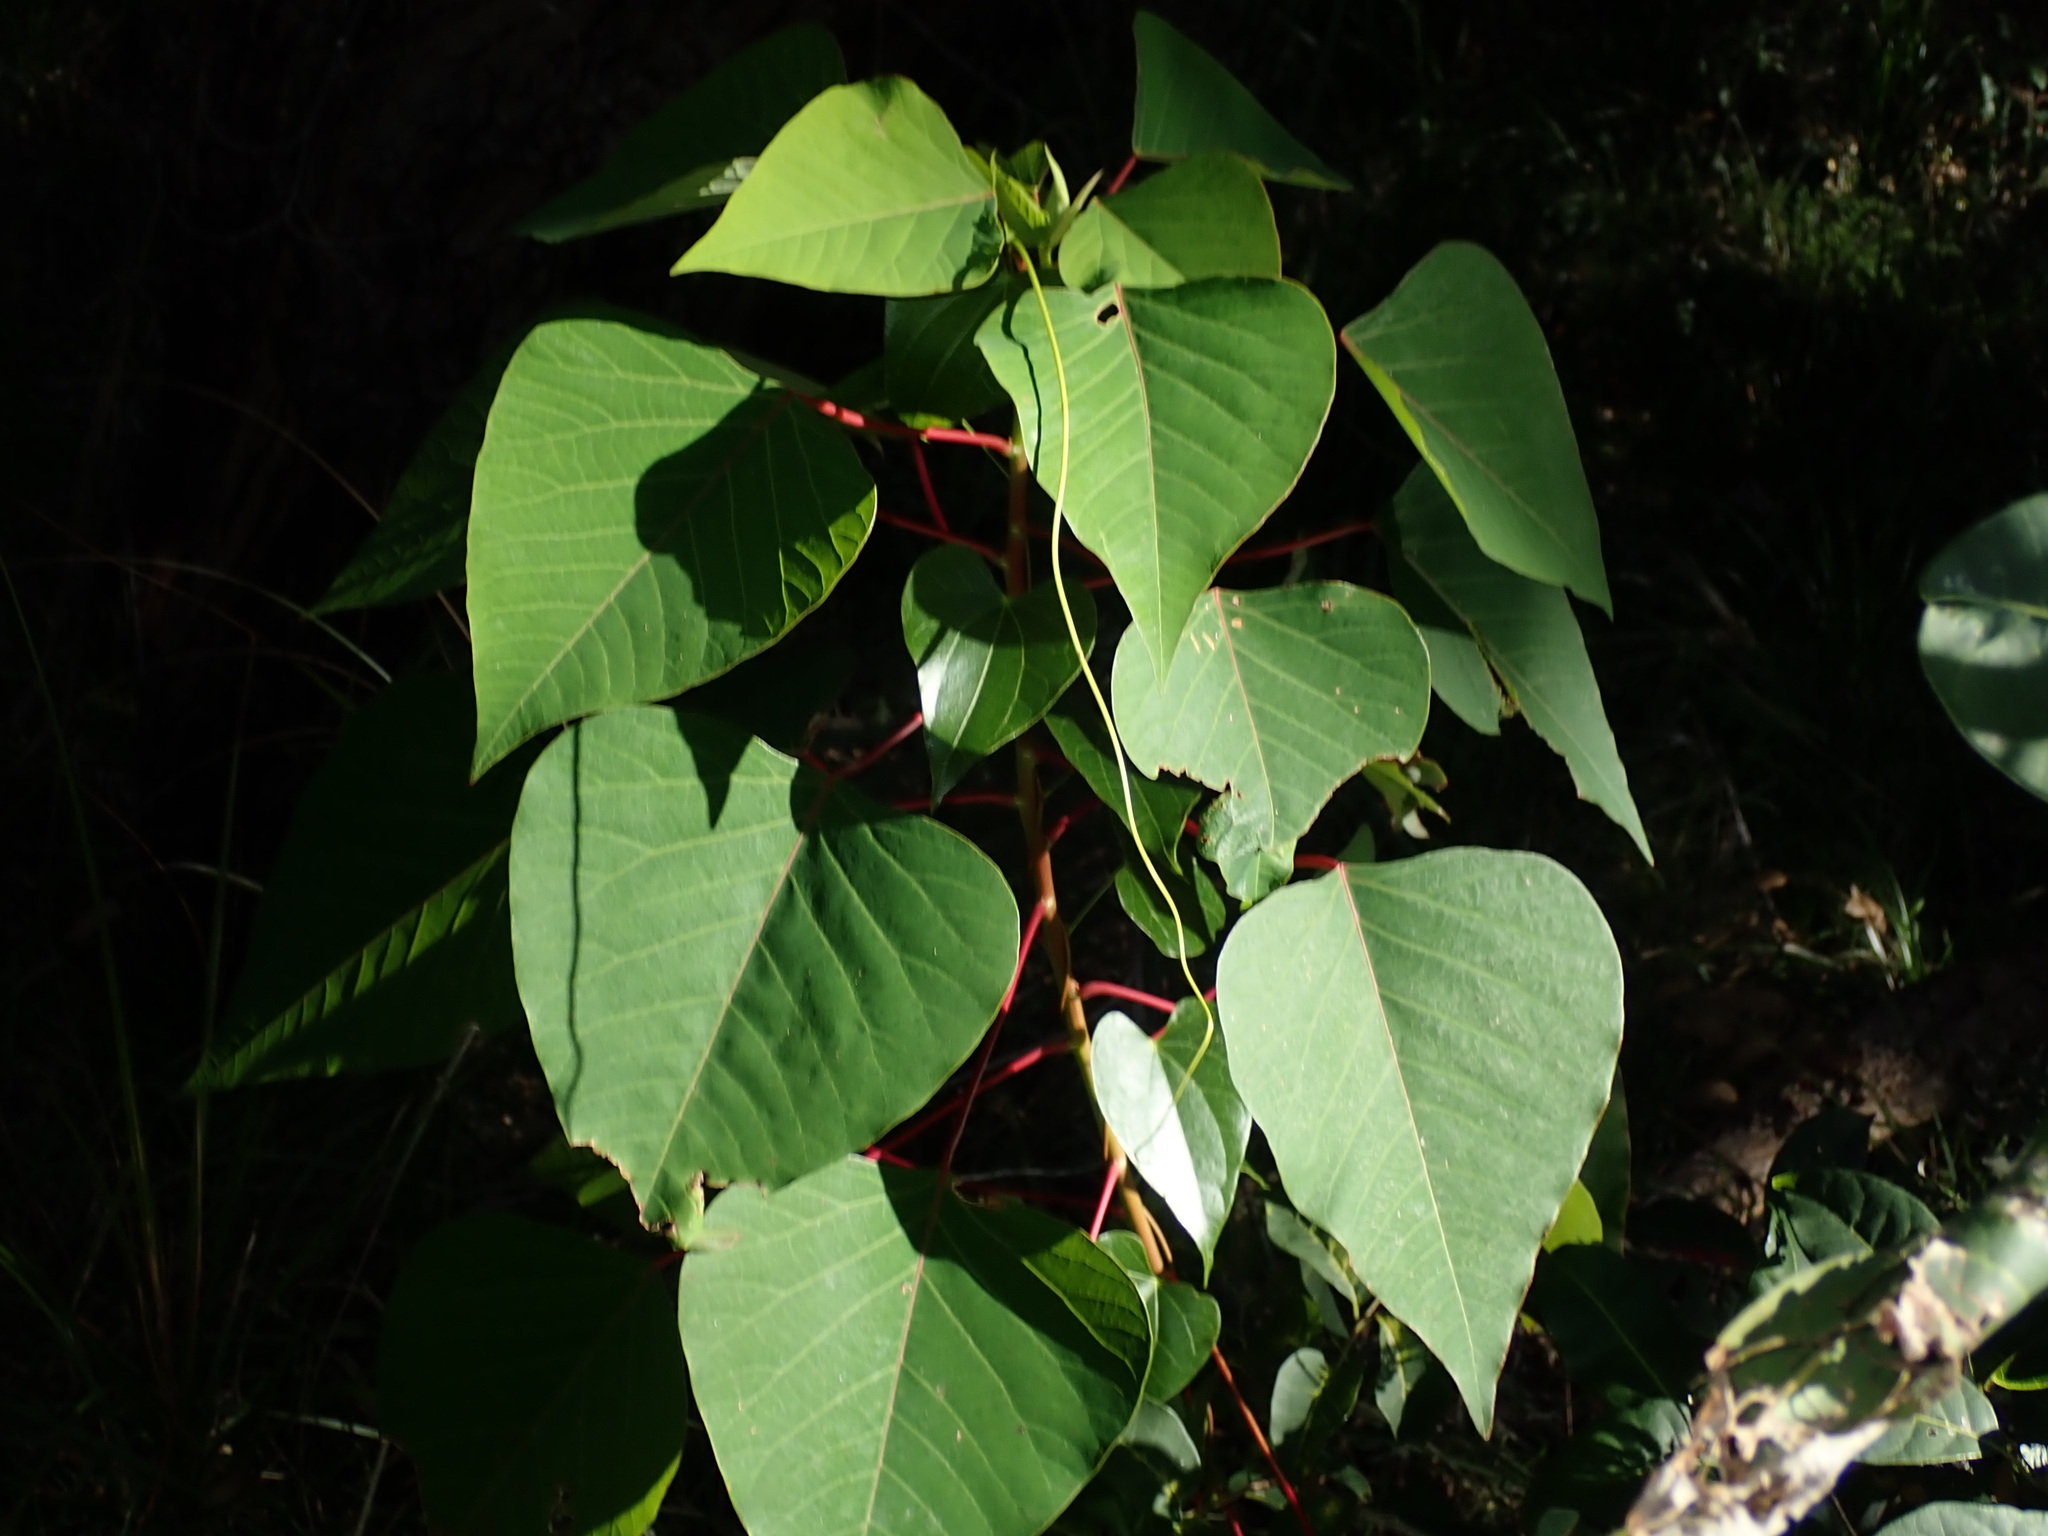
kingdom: Plantae
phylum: Tracheophyta
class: Magnoliopsida
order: Malpighiales
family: Euphorbiaceae
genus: Homalanthus
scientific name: Homalanthus populifolius
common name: Queensland poplar
